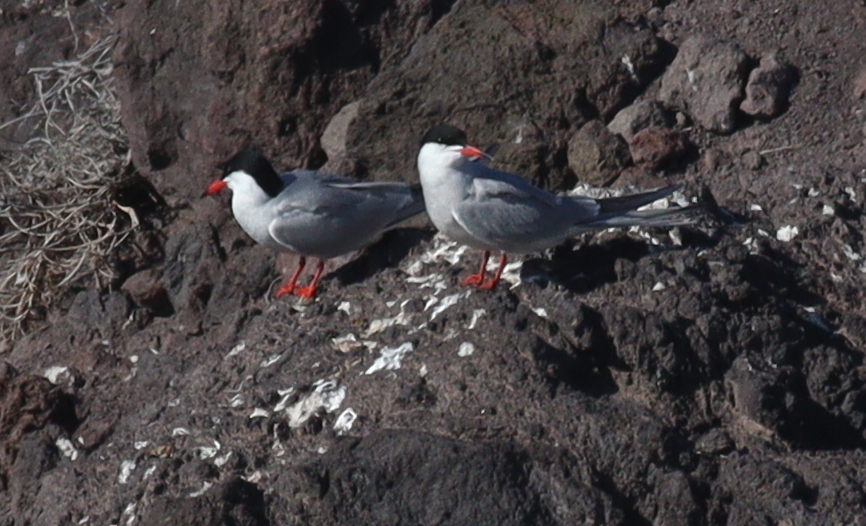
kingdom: Animalia
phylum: Chordata
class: Aves
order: Charadriiformes
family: Laridae
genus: Sterna
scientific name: Sterna hirundo
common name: Common tern
